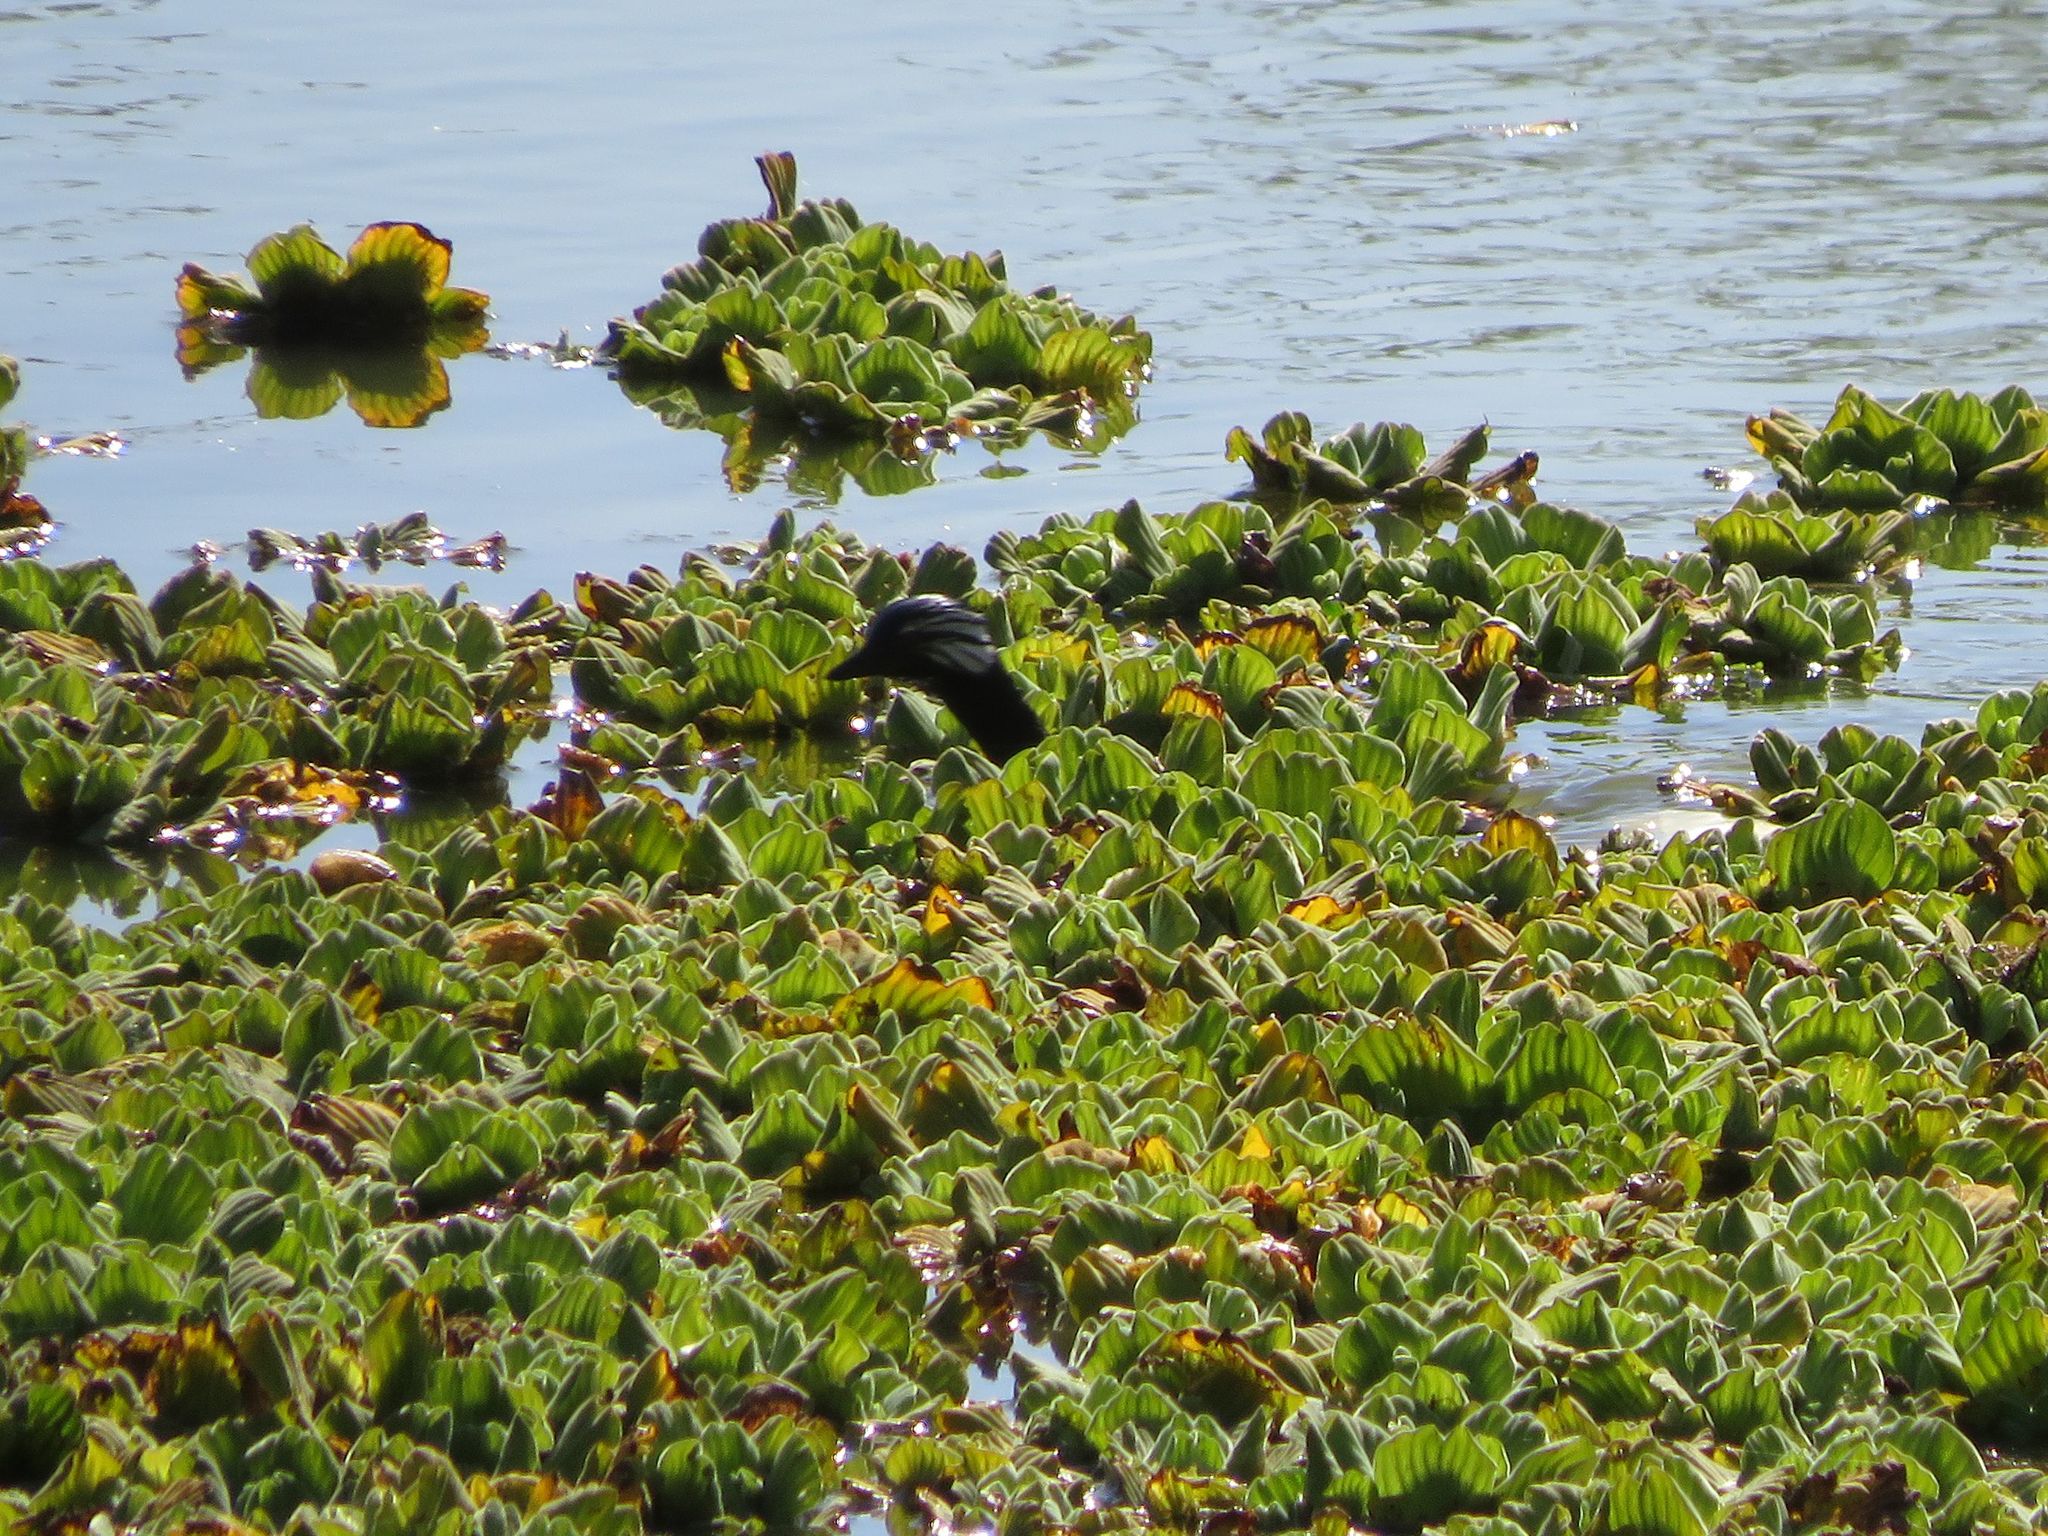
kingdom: Animalia
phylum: Chordata
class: Aves
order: Podicipediformes
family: Podicipedidae
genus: Rollandia
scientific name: Rollandia rolland
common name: White-tufted grebe
